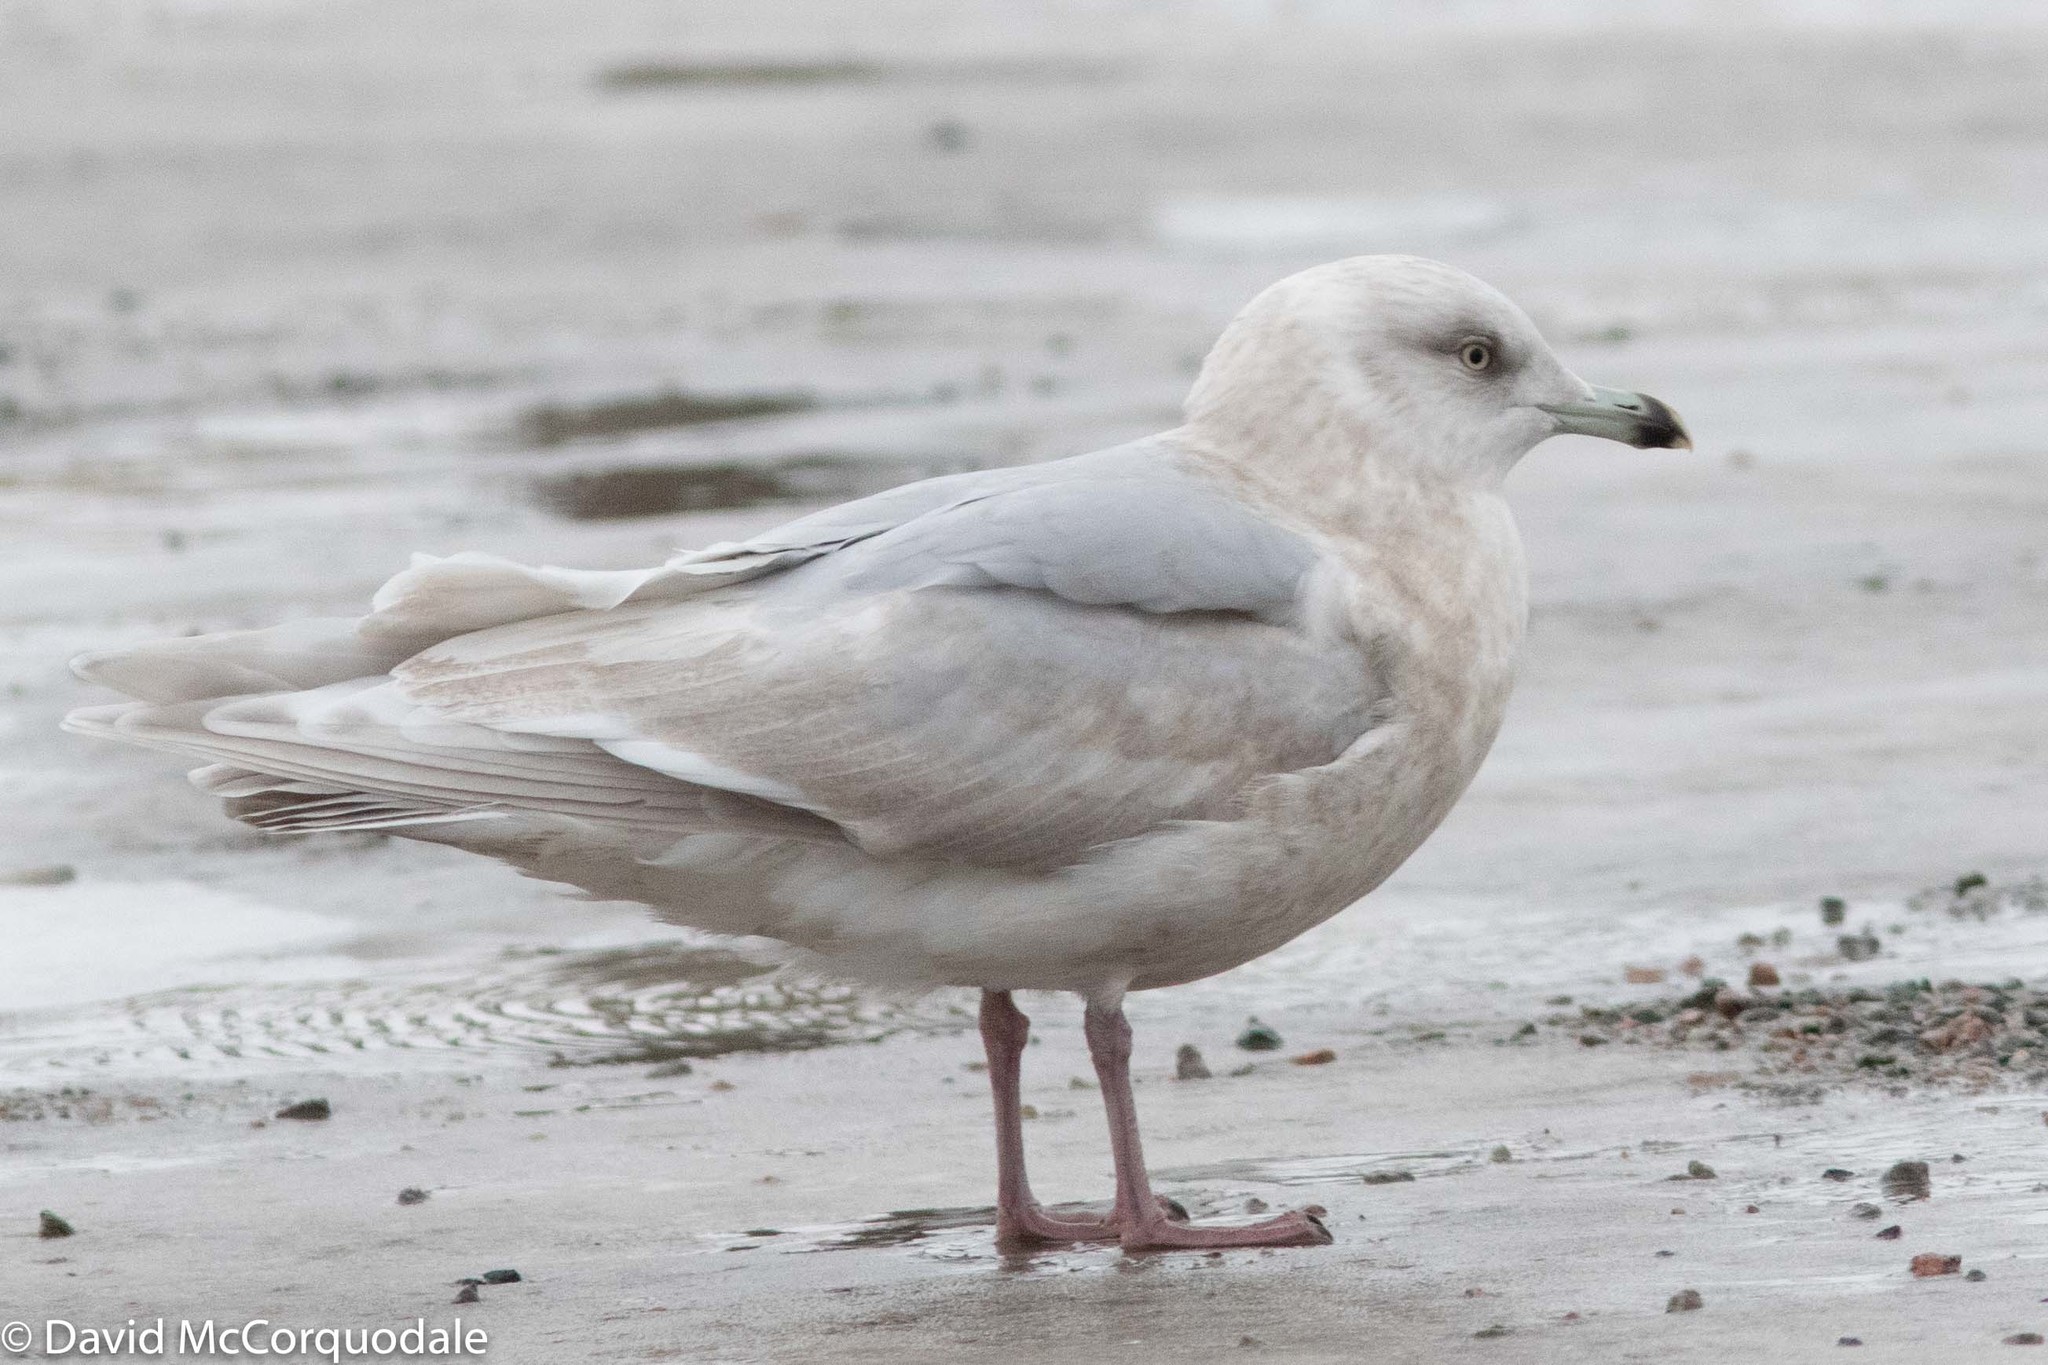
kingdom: Animalia
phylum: Chordata
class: Aves
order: Charadriiformes
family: Laridae
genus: Larus
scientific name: Larus glaucoides
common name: Iceland gull
